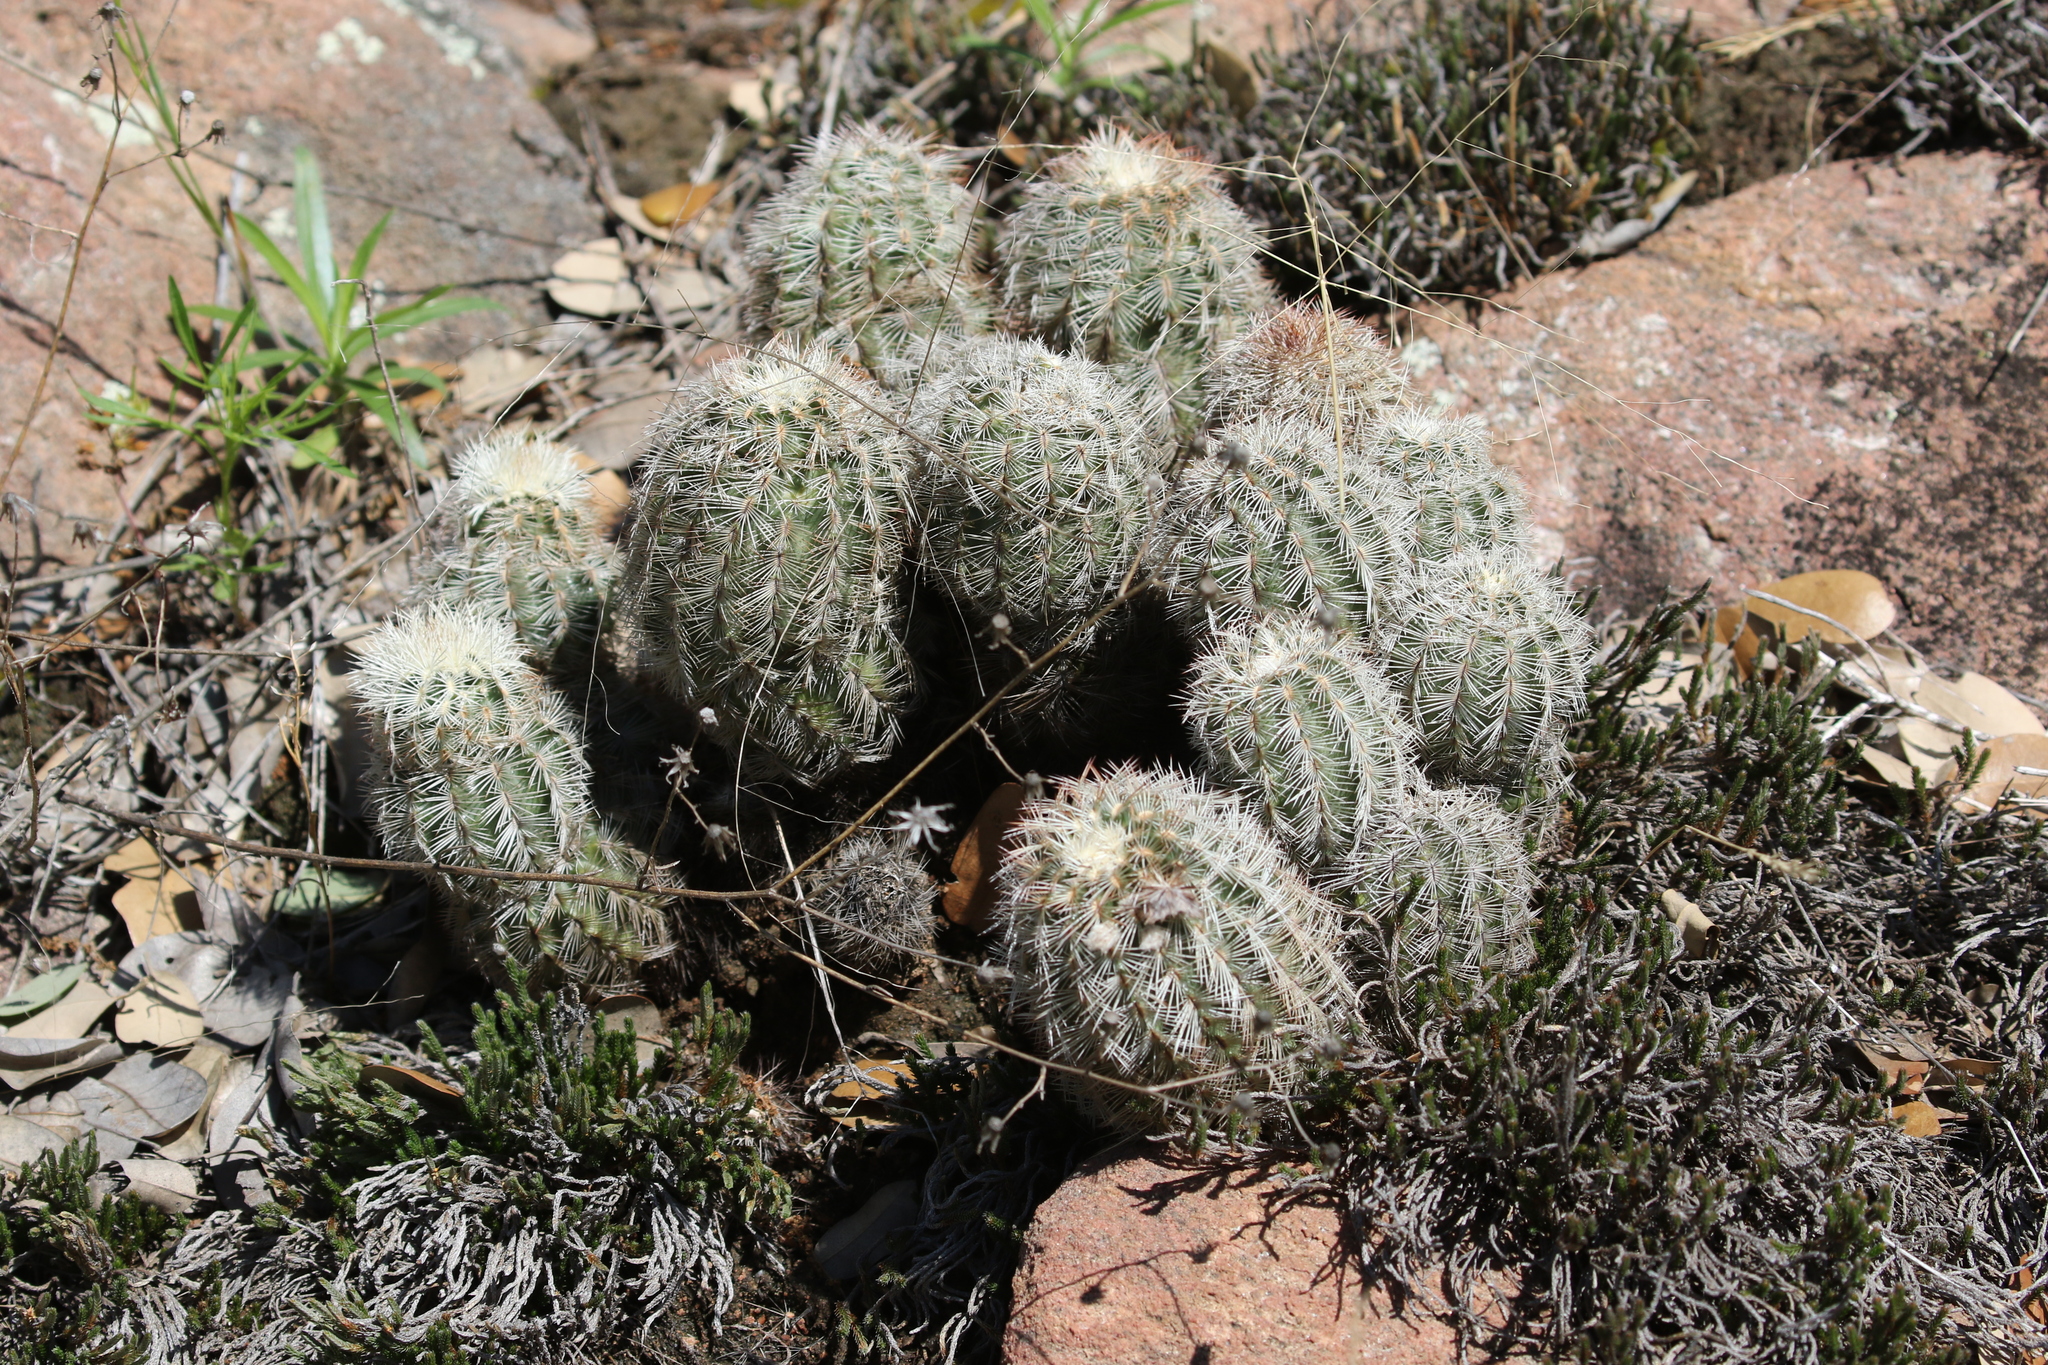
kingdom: Plantae
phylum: Tracheophyta
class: Magnoliopsida
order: Caryophyllales
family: Cactaceae
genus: Echinocereus
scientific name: Echinocereus reichenbachii
